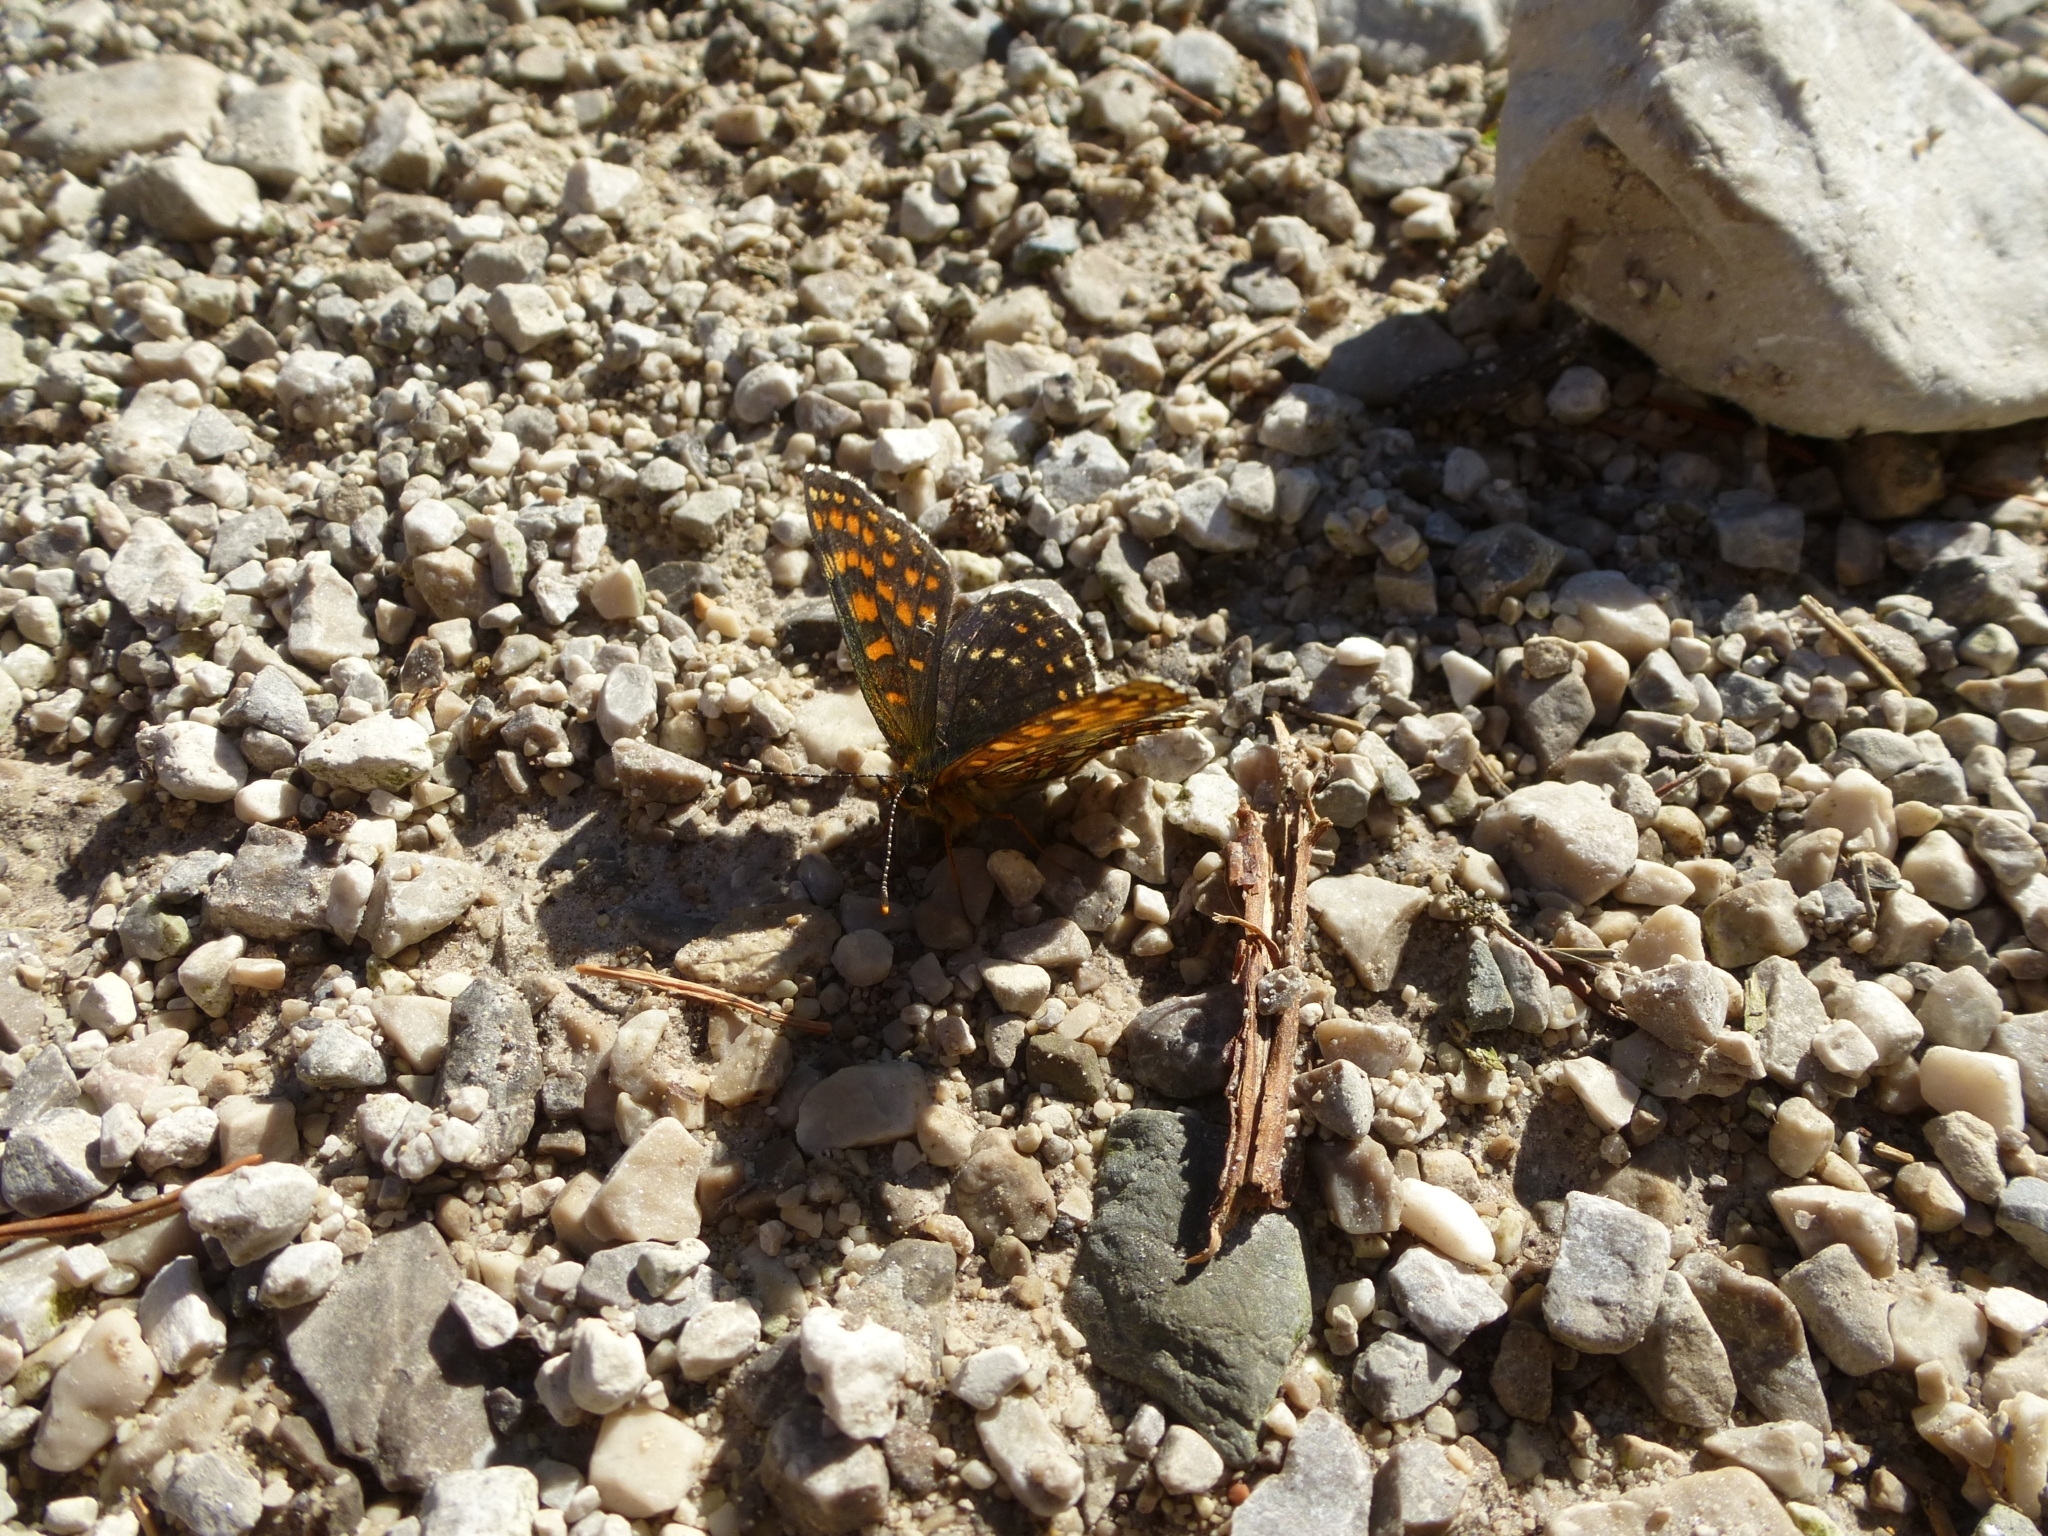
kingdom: Animalia
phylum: Arthropoda
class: Insecta
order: Lepidoptera
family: Nymphalidae
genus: Melitaea
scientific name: Melitaea athalia
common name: Heath fritillary
